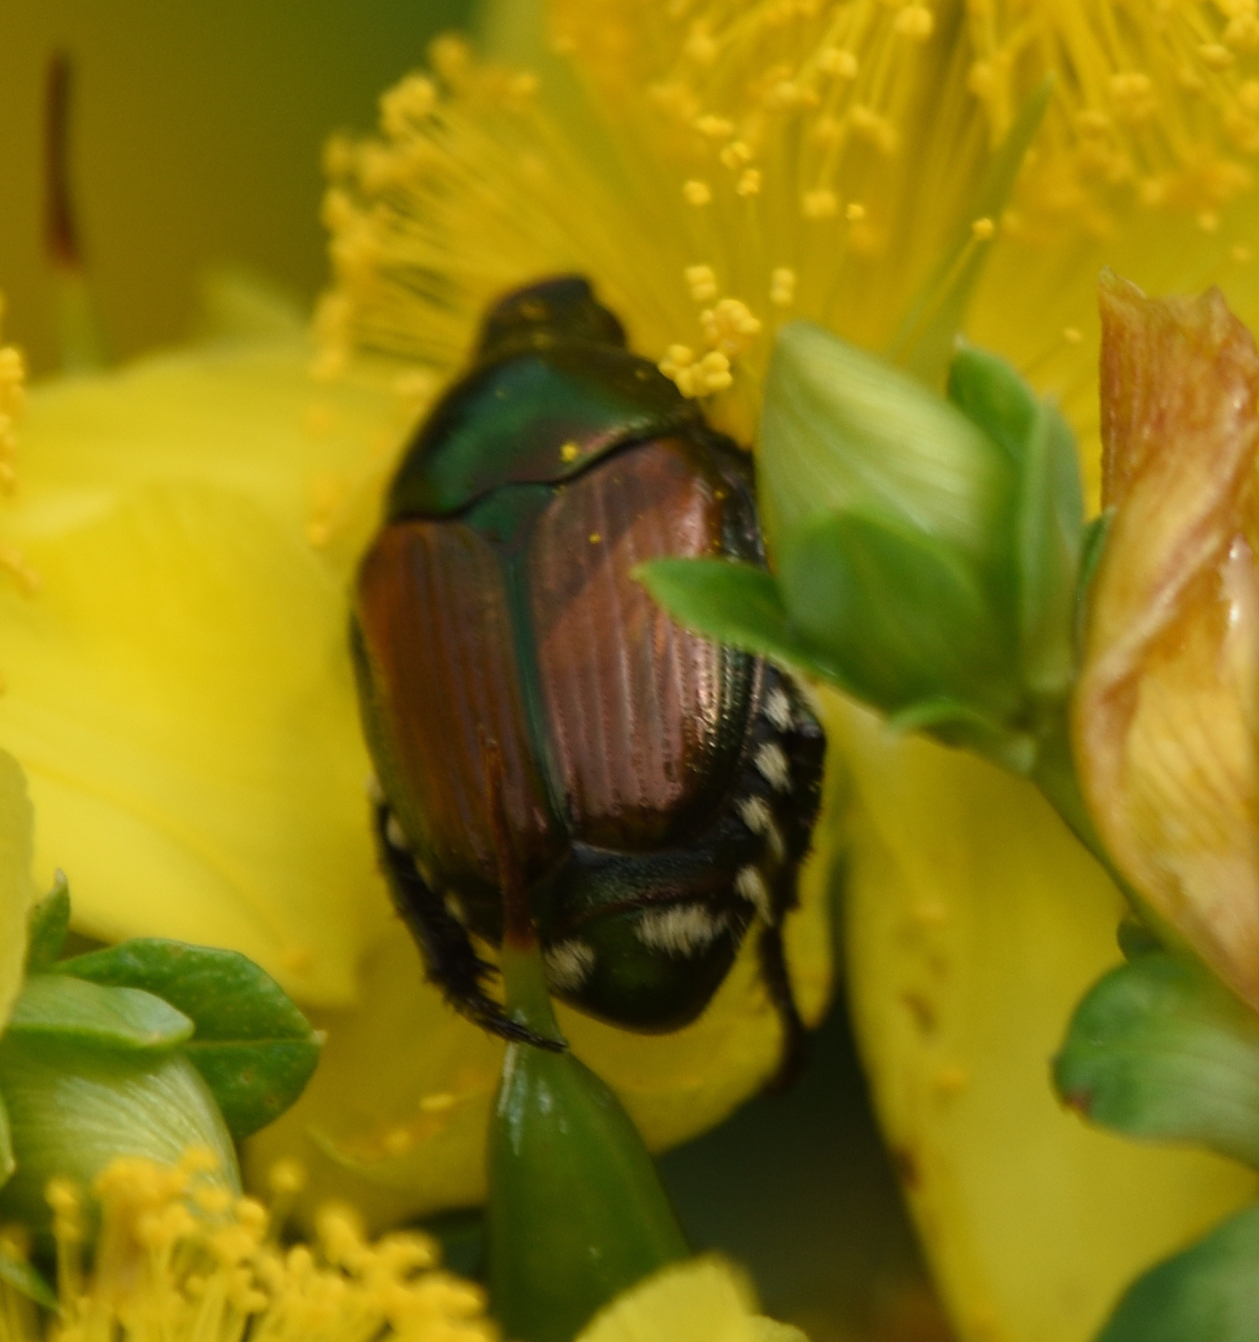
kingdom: Animalia
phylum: Arthropoda
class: Insecta
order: Coleoptera
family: Scarabaeidae
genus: Popillia
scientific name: Popillia japonica
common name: Japanese beetle
